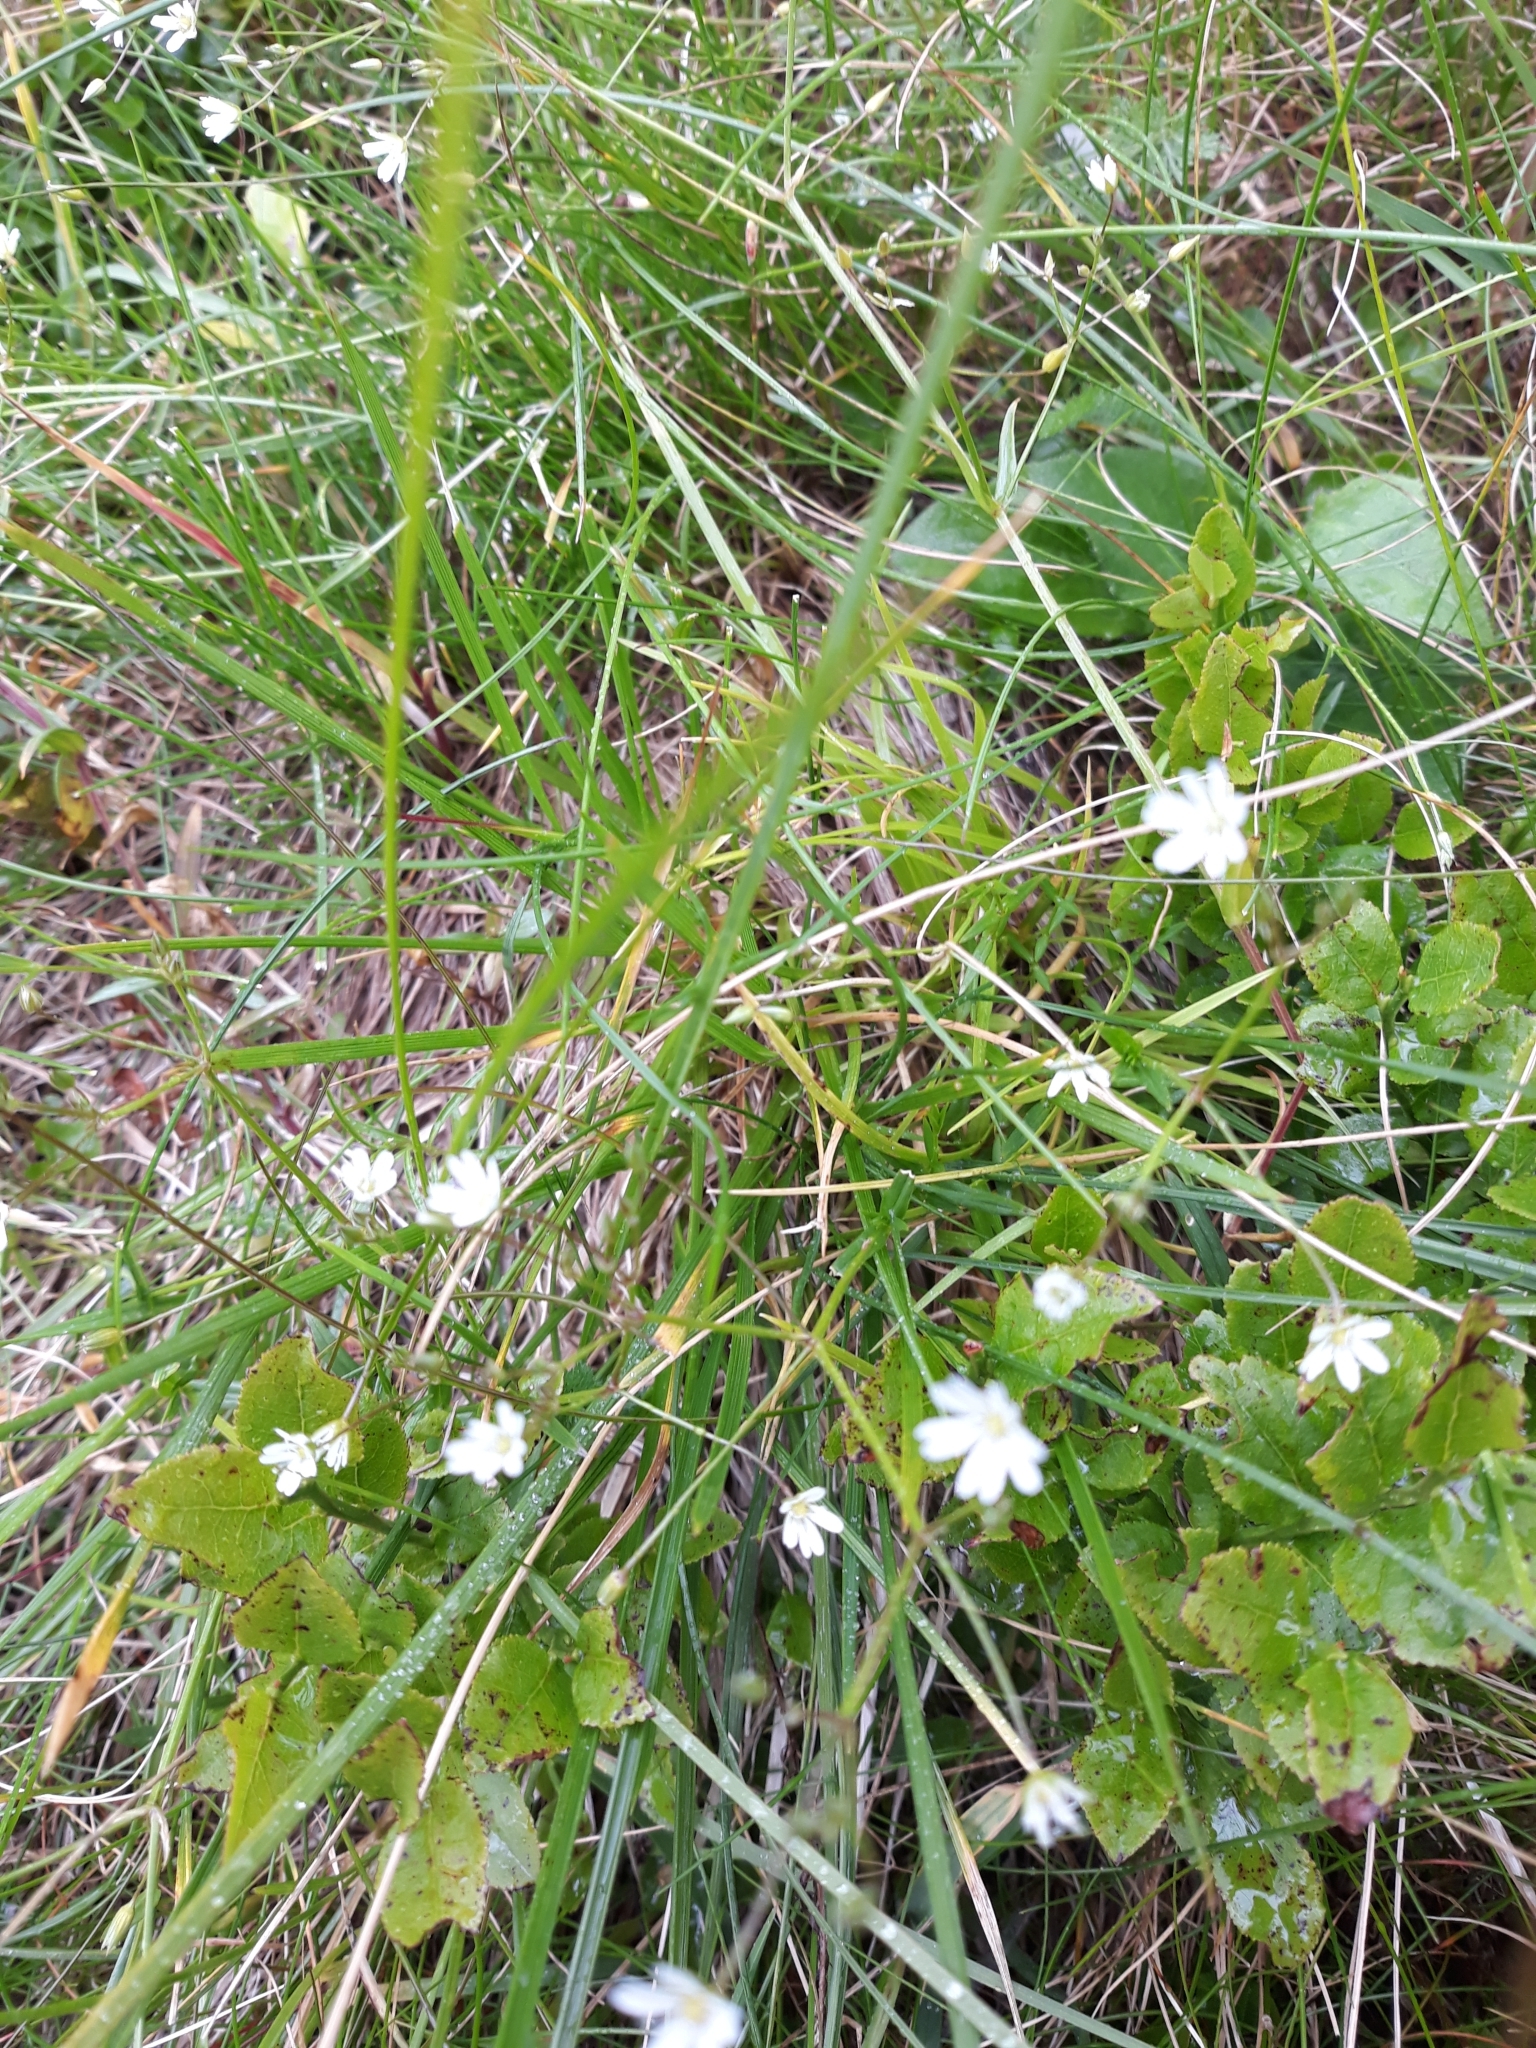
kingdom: Plantae
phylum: Tracheophyta
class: Magnoliopsida
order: Caryophyllales
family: Caryophyllaceae
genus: Stellaria
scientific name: Stellaria graminea
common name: Grass-like starwort
